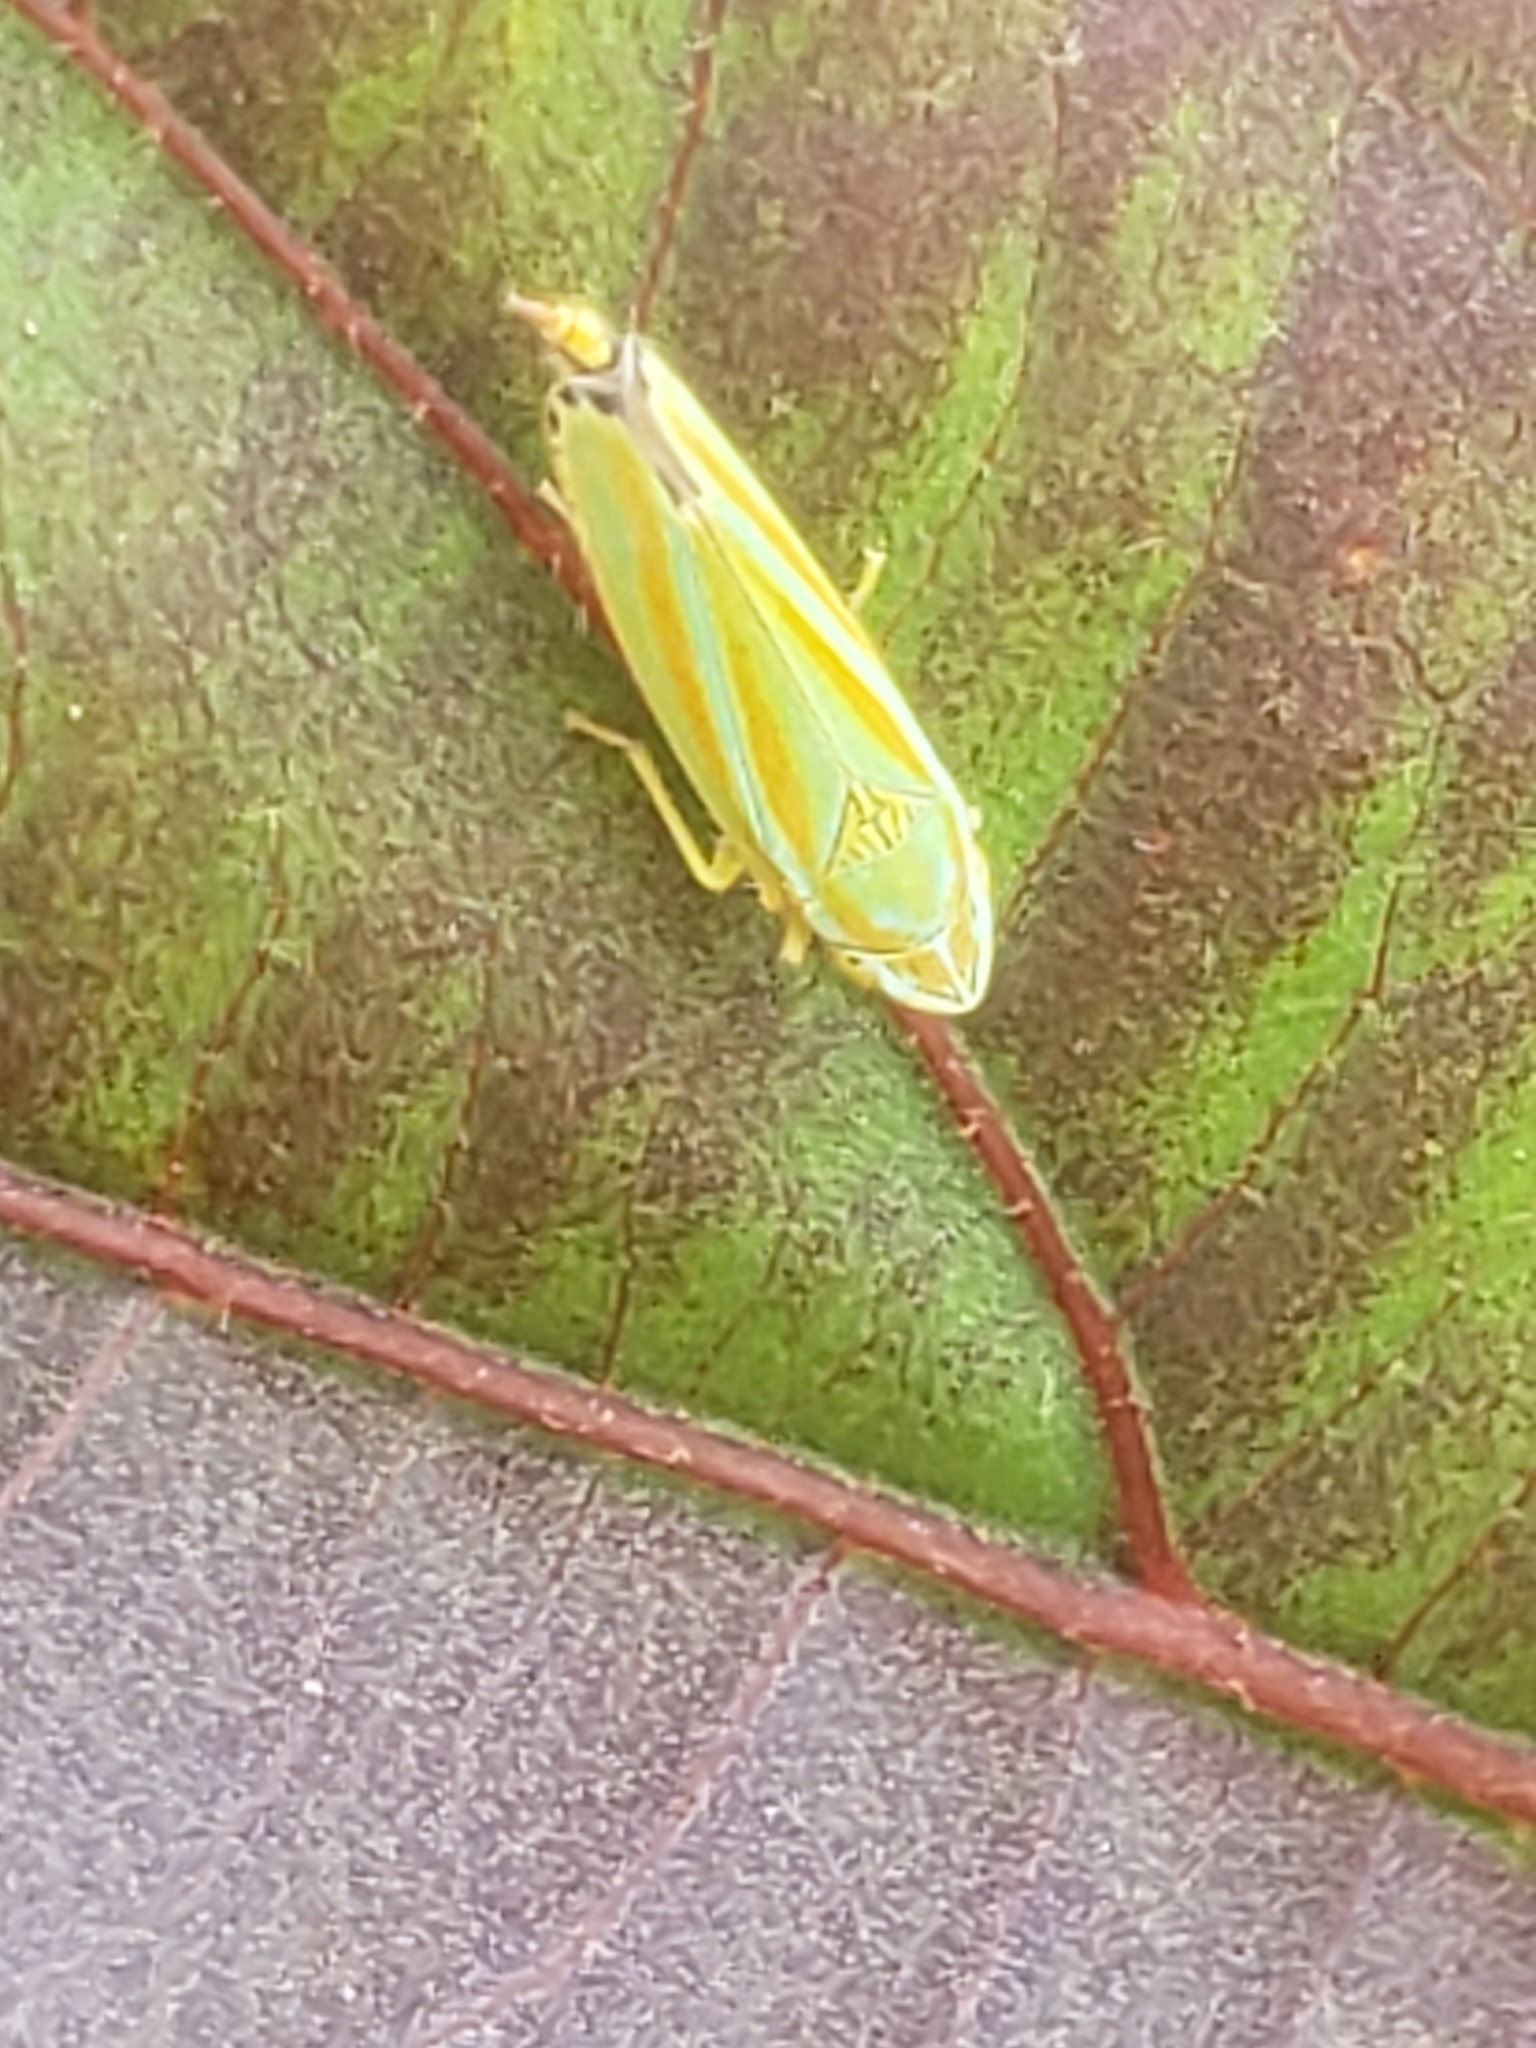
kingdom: Animalia
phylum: Arthropoda
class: Insecta
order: Hemiptera
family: Cicadellidae
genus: Graphocephala
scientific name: Graphocephala versuta
